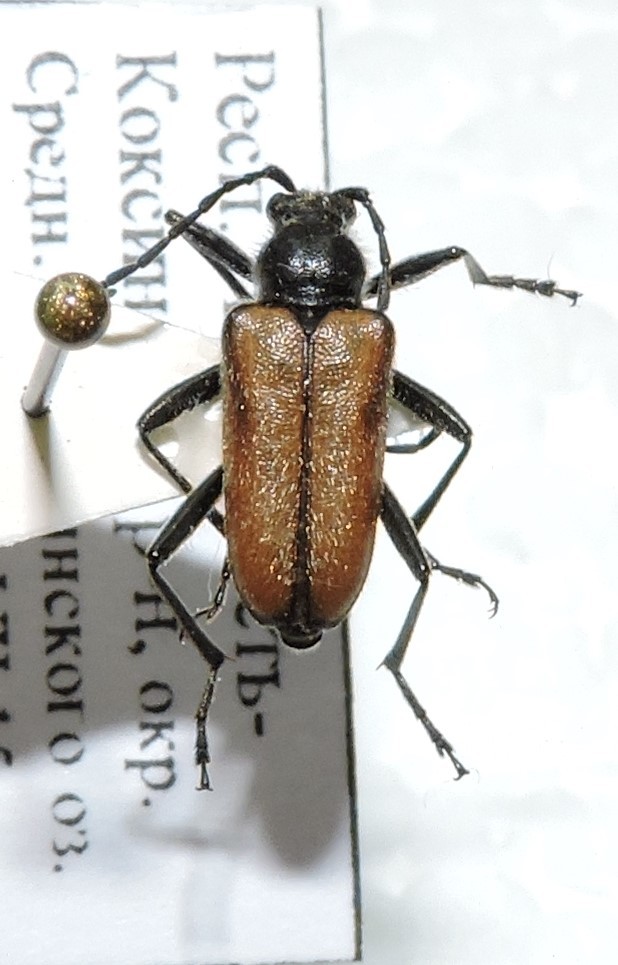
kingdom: Animalia
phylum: Arthropoda
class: Insecta
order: Coleoptera
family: Cerambycidae
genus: Gnathacmaeops
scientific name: Gnathacmaeops pratensis
